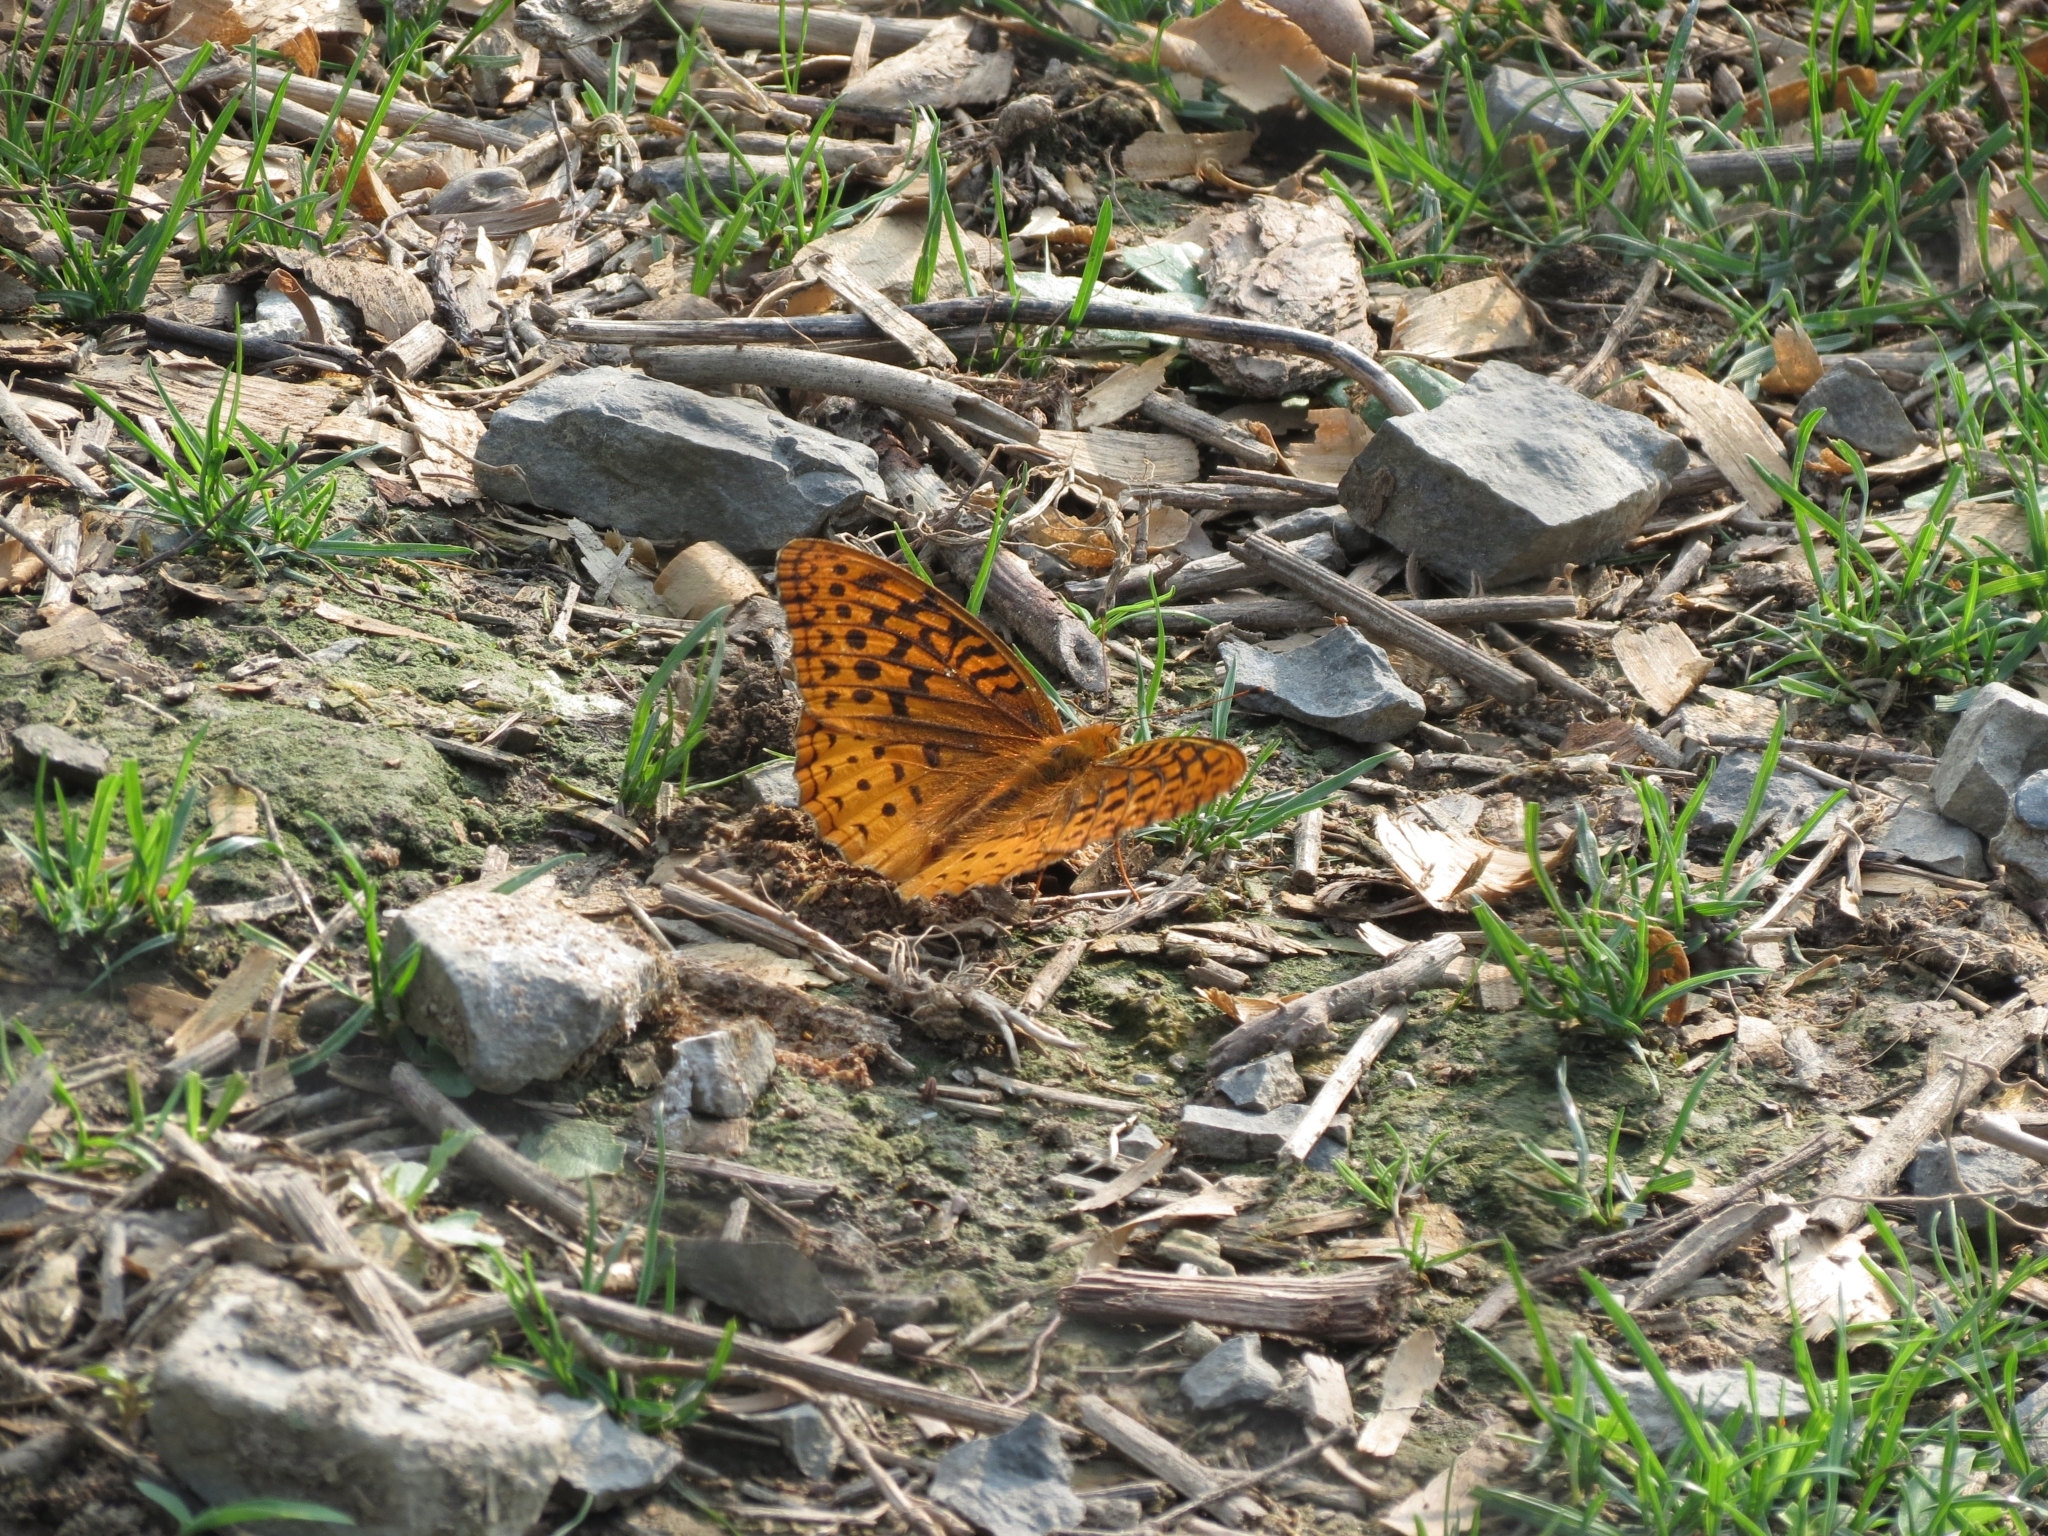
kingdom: Animalia
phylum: Arthropoda
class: Insecta
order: Lepidoptera
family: Nymphalidae
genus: Speyeria
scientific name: Speyeria cybele
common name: Great spangled fritillary
